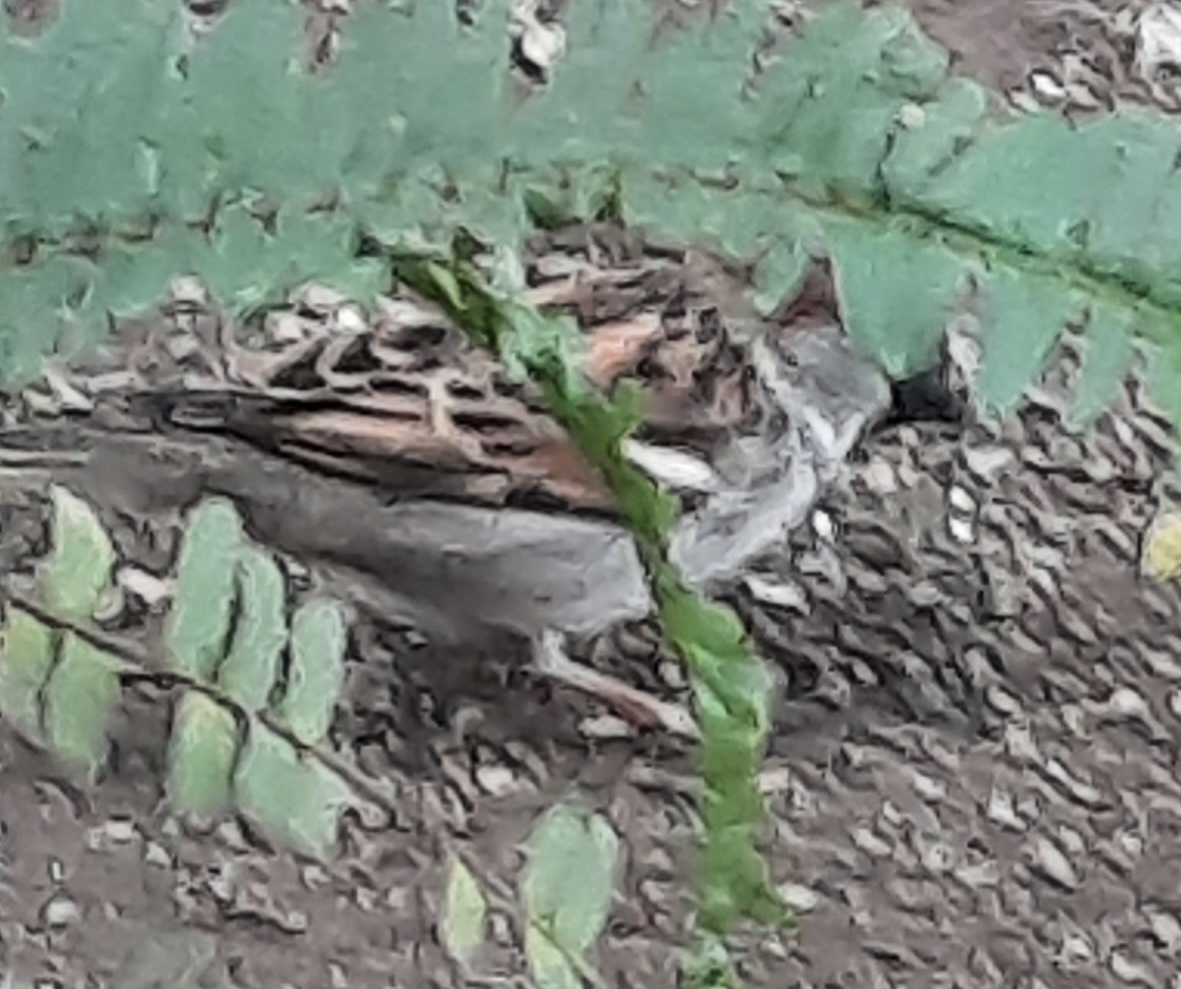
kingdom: Animalia
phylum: Chordata
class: Aves
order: Passeriformes
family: Passeridae
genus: Passer
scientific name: Passer domesticus
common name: House sparrow
